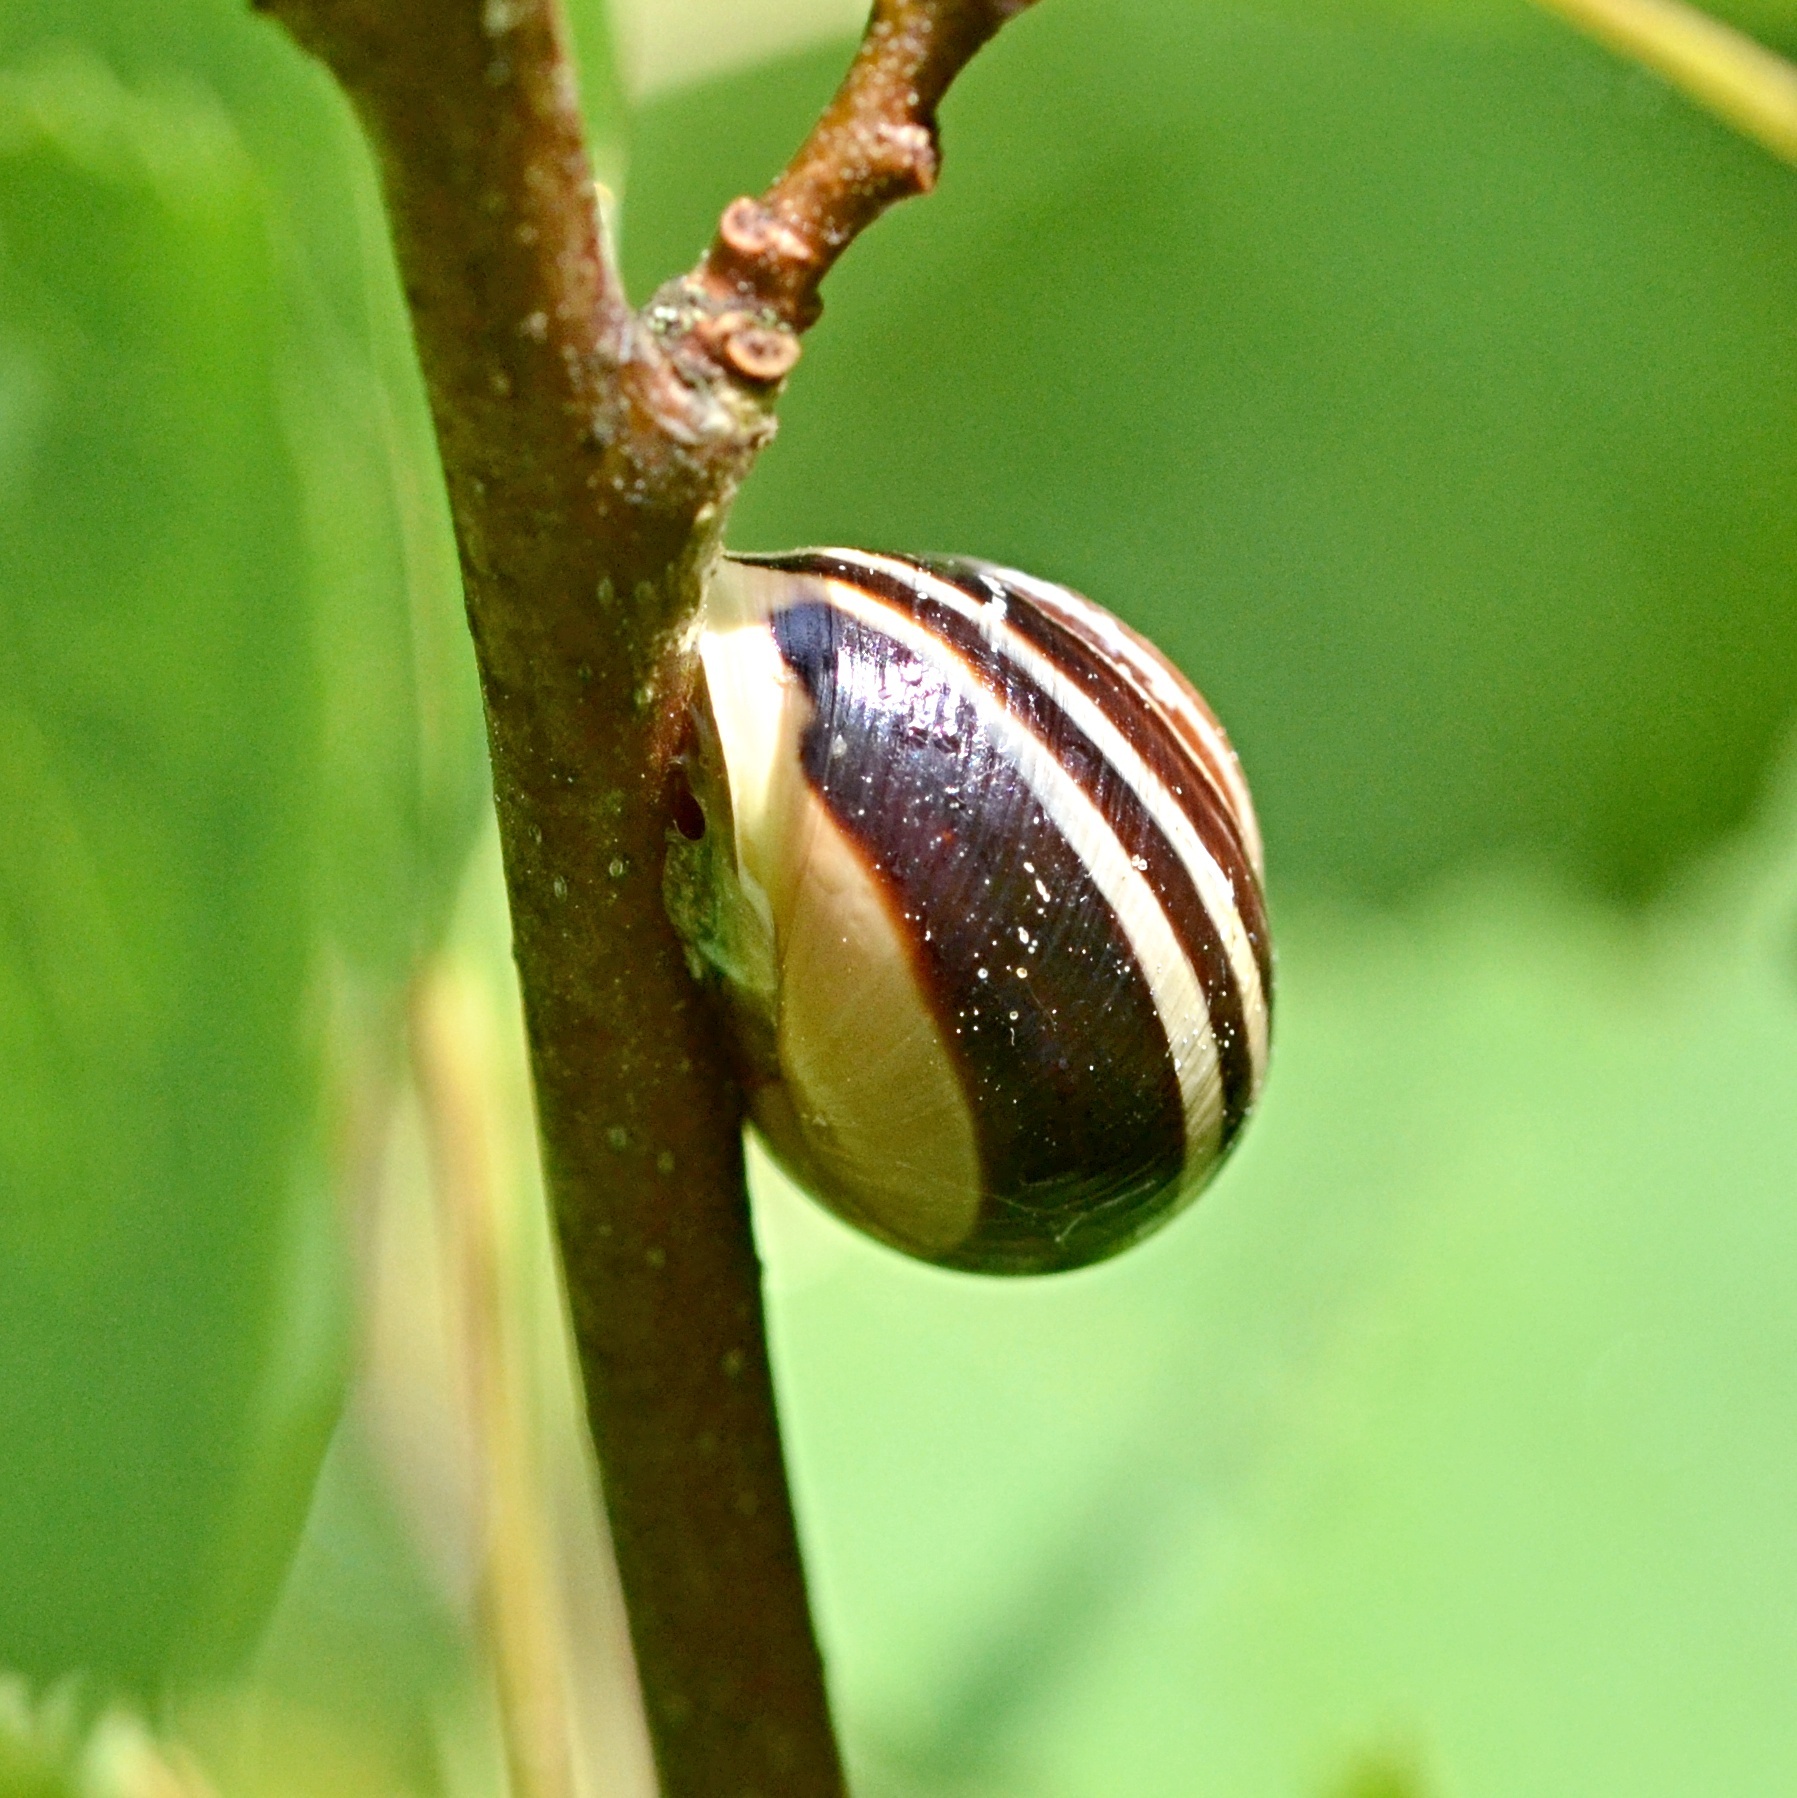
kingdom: Animalia
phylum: Mollusca
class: Gastropoda
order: Stylommatophora
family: Helicidae
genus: Cepaea
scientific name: Cepaea hortensis
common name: White-lip gardensnail
